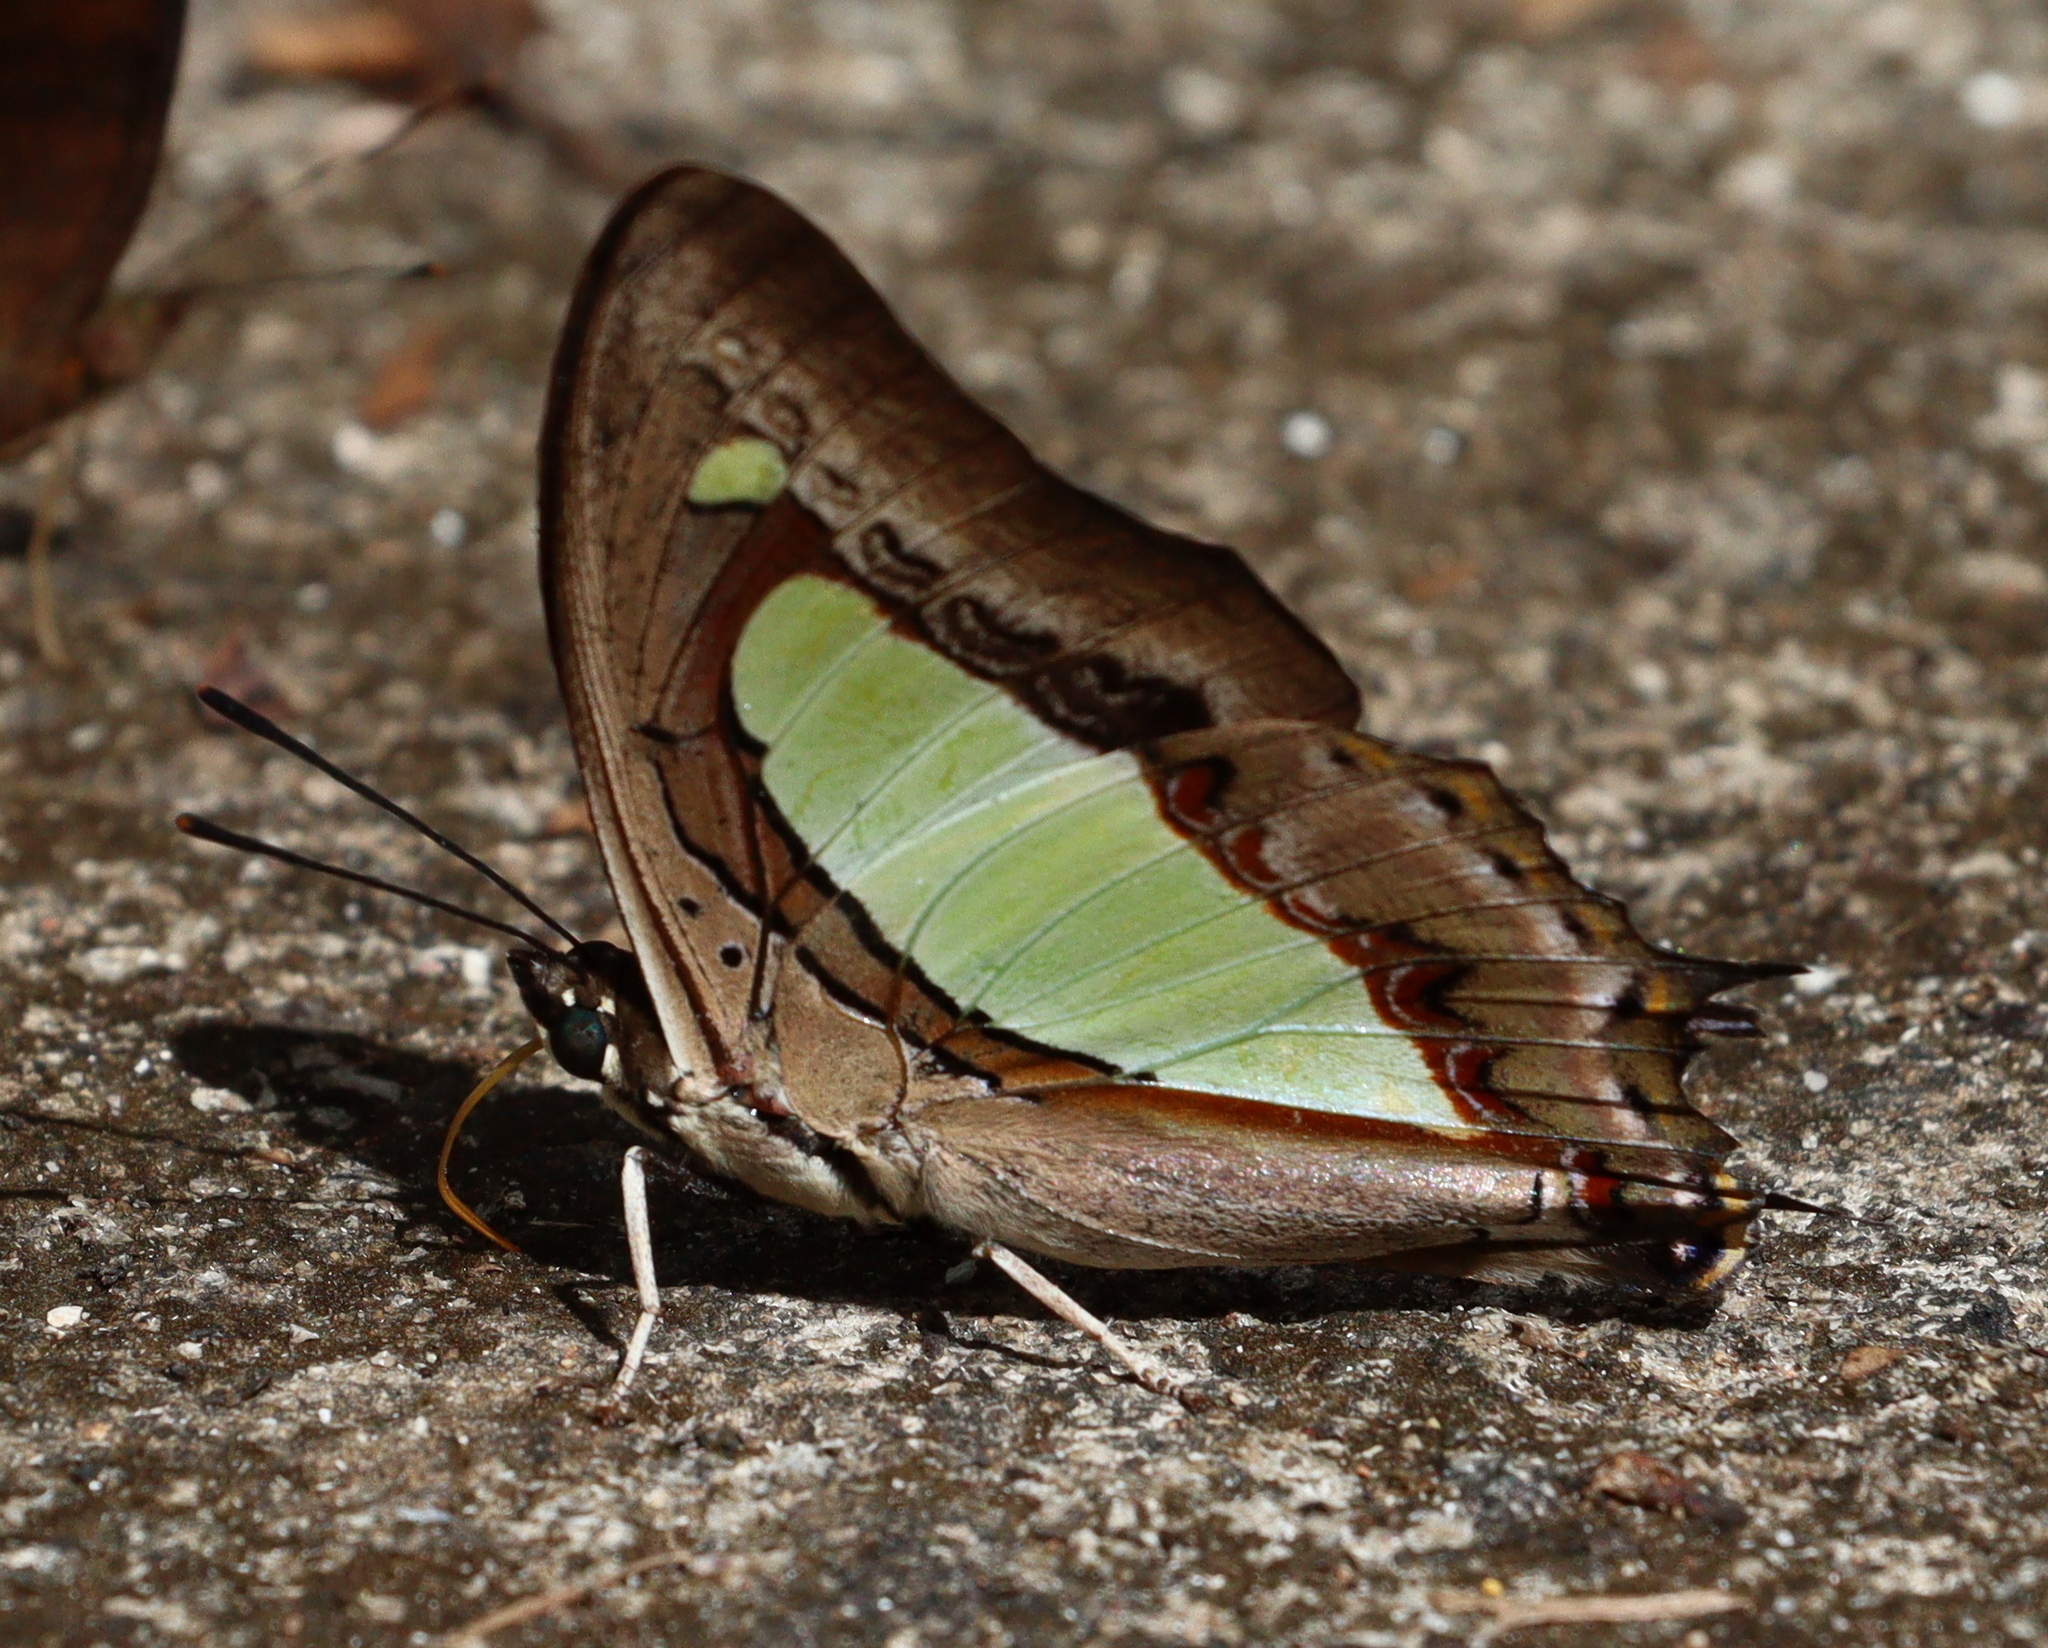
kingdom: Animalia
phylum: Arthropoda
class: Insecta
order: Lepidoptera
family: Nymphalidae
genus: Polyura
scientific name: Polyura athamas
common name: Common nawab
